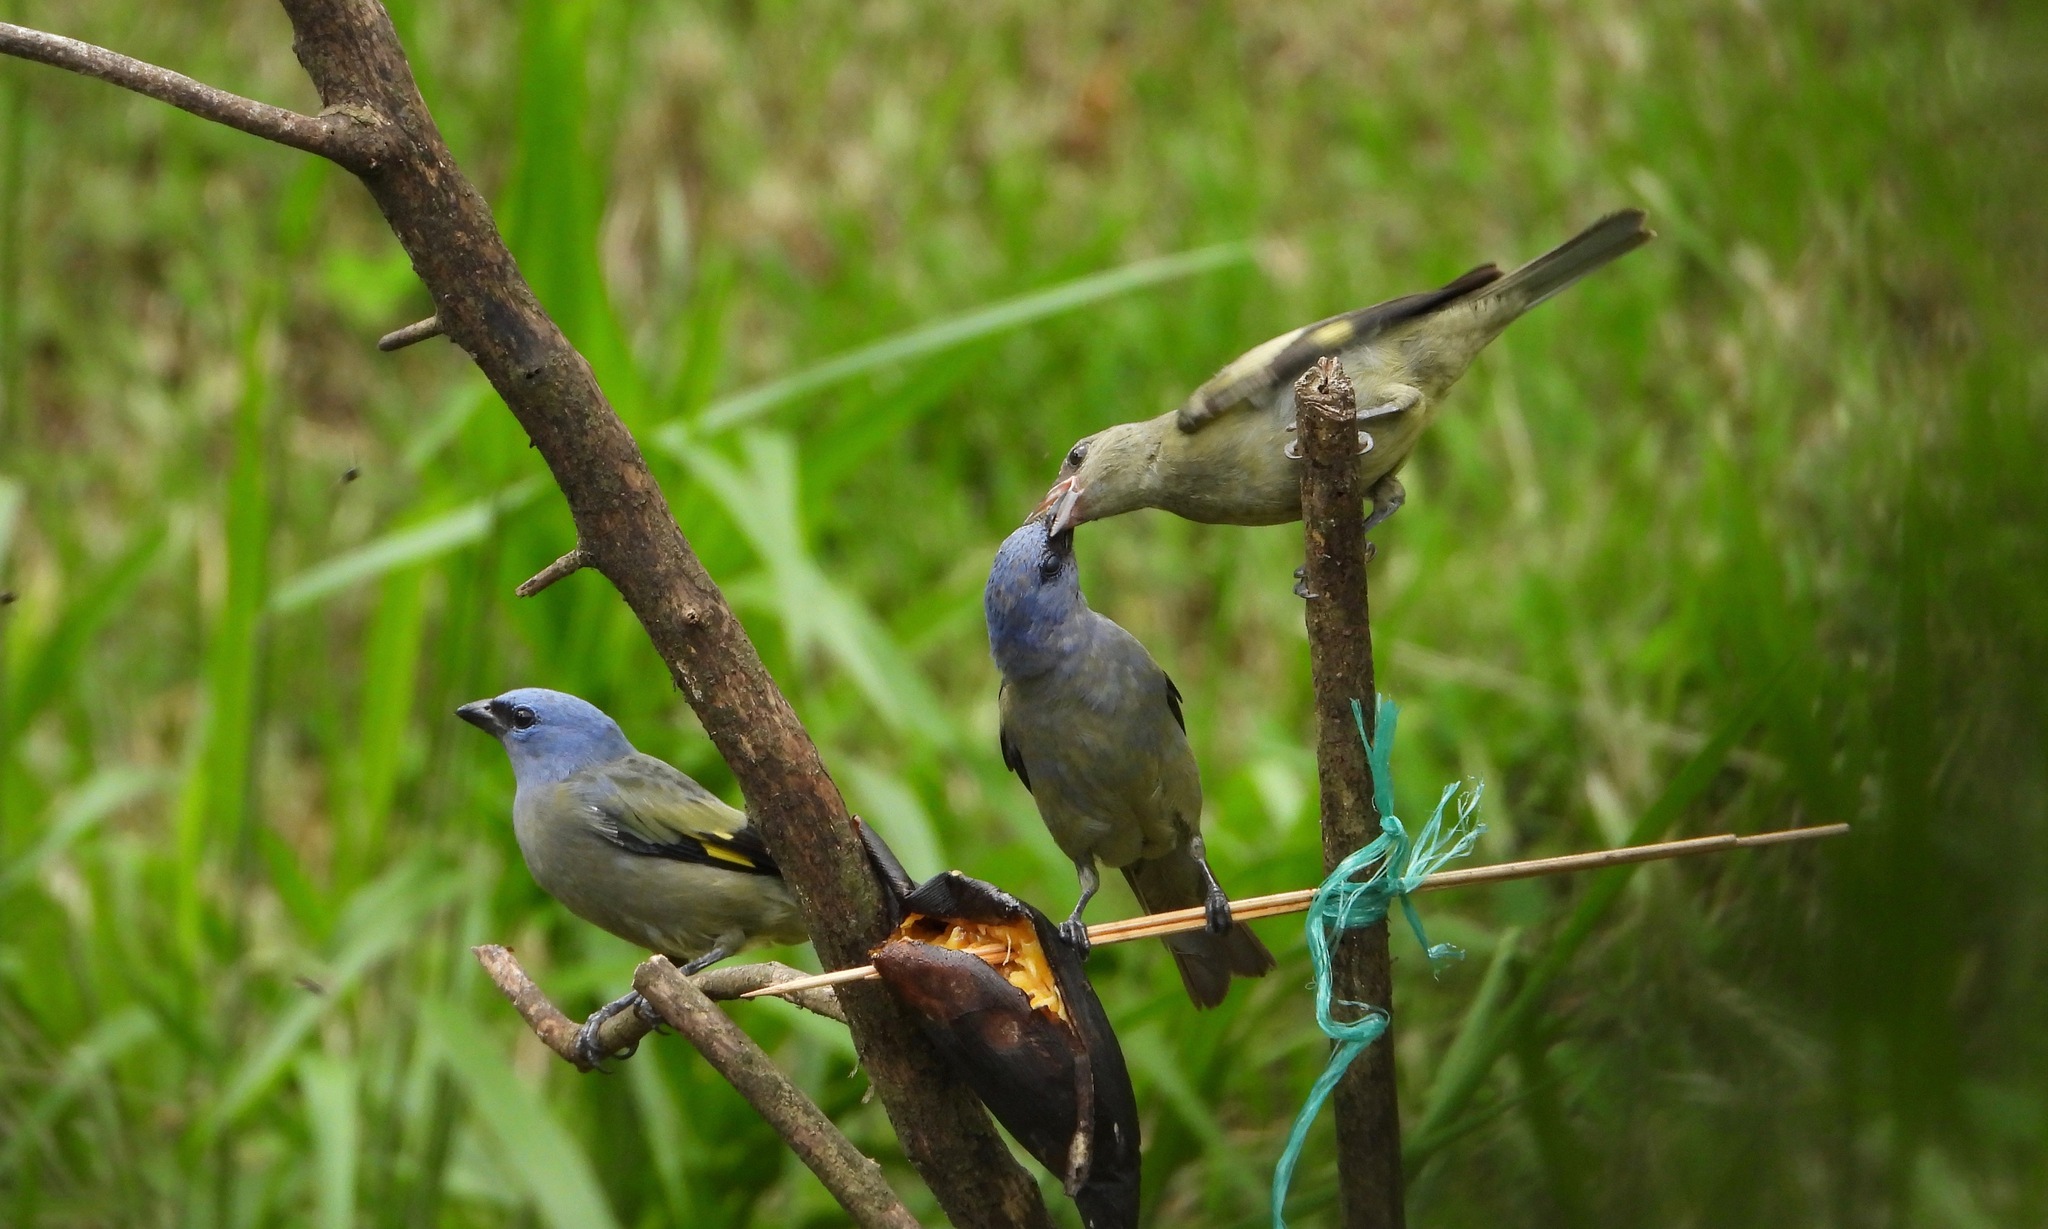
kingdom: Animalia
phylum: Chordata
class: Aves
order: Passeriformes
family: Thraupidae
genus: Thraupis
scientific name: Thraupis abbas
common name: Yellow-winged tanager
